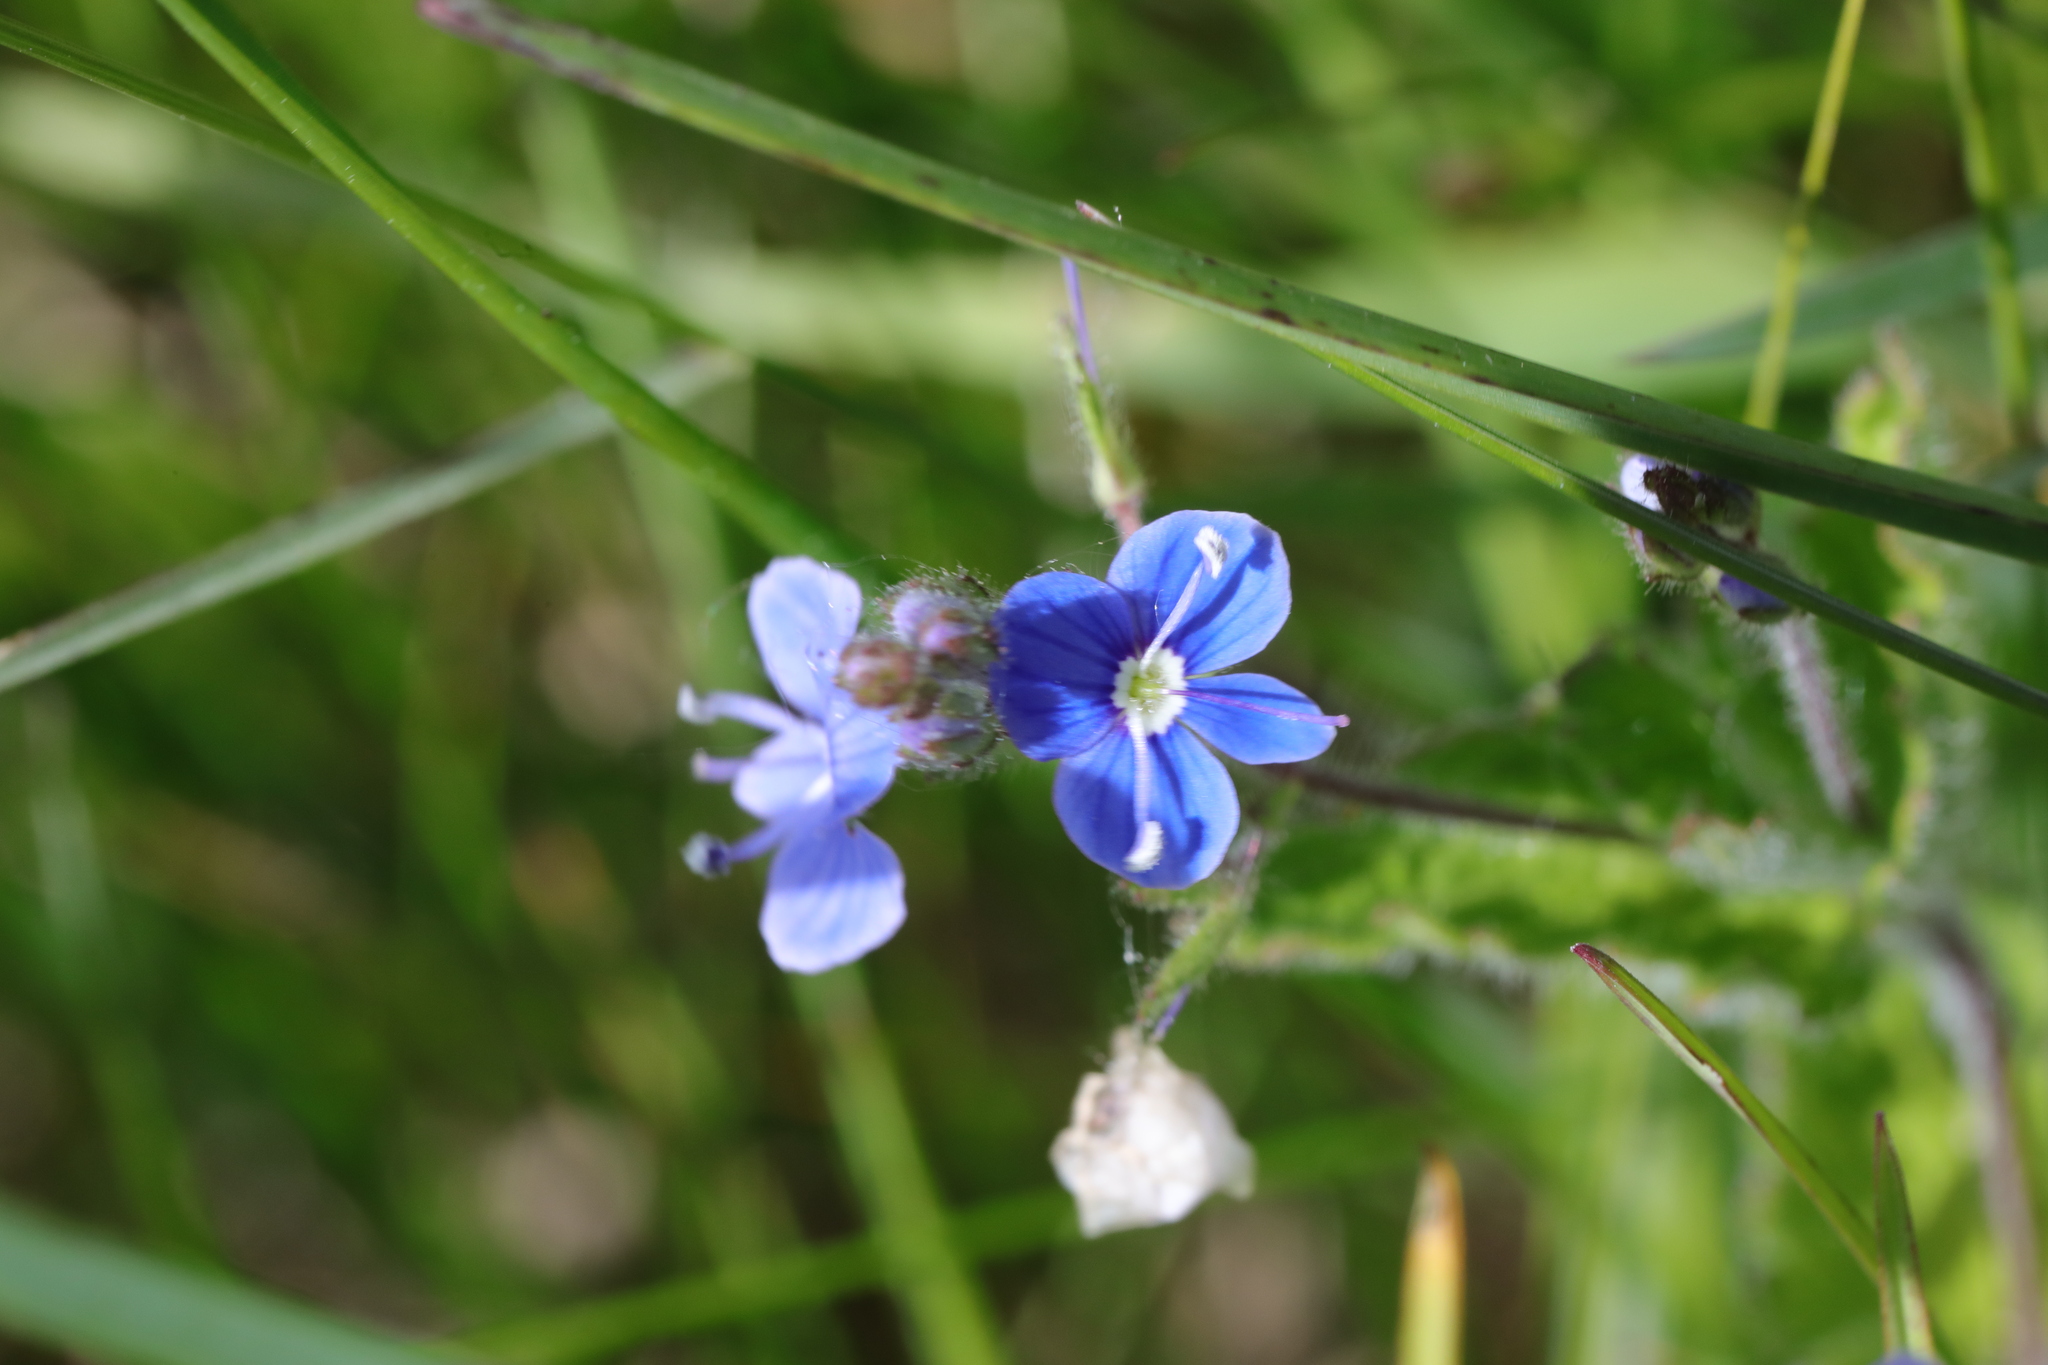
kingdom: Plantae
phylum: Tracheophyta
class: Magnoliopsida
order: Lamiales
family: Plantaginaceae
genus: Veronica
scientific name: Veronica chamaedrys
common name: Germander speedwell
